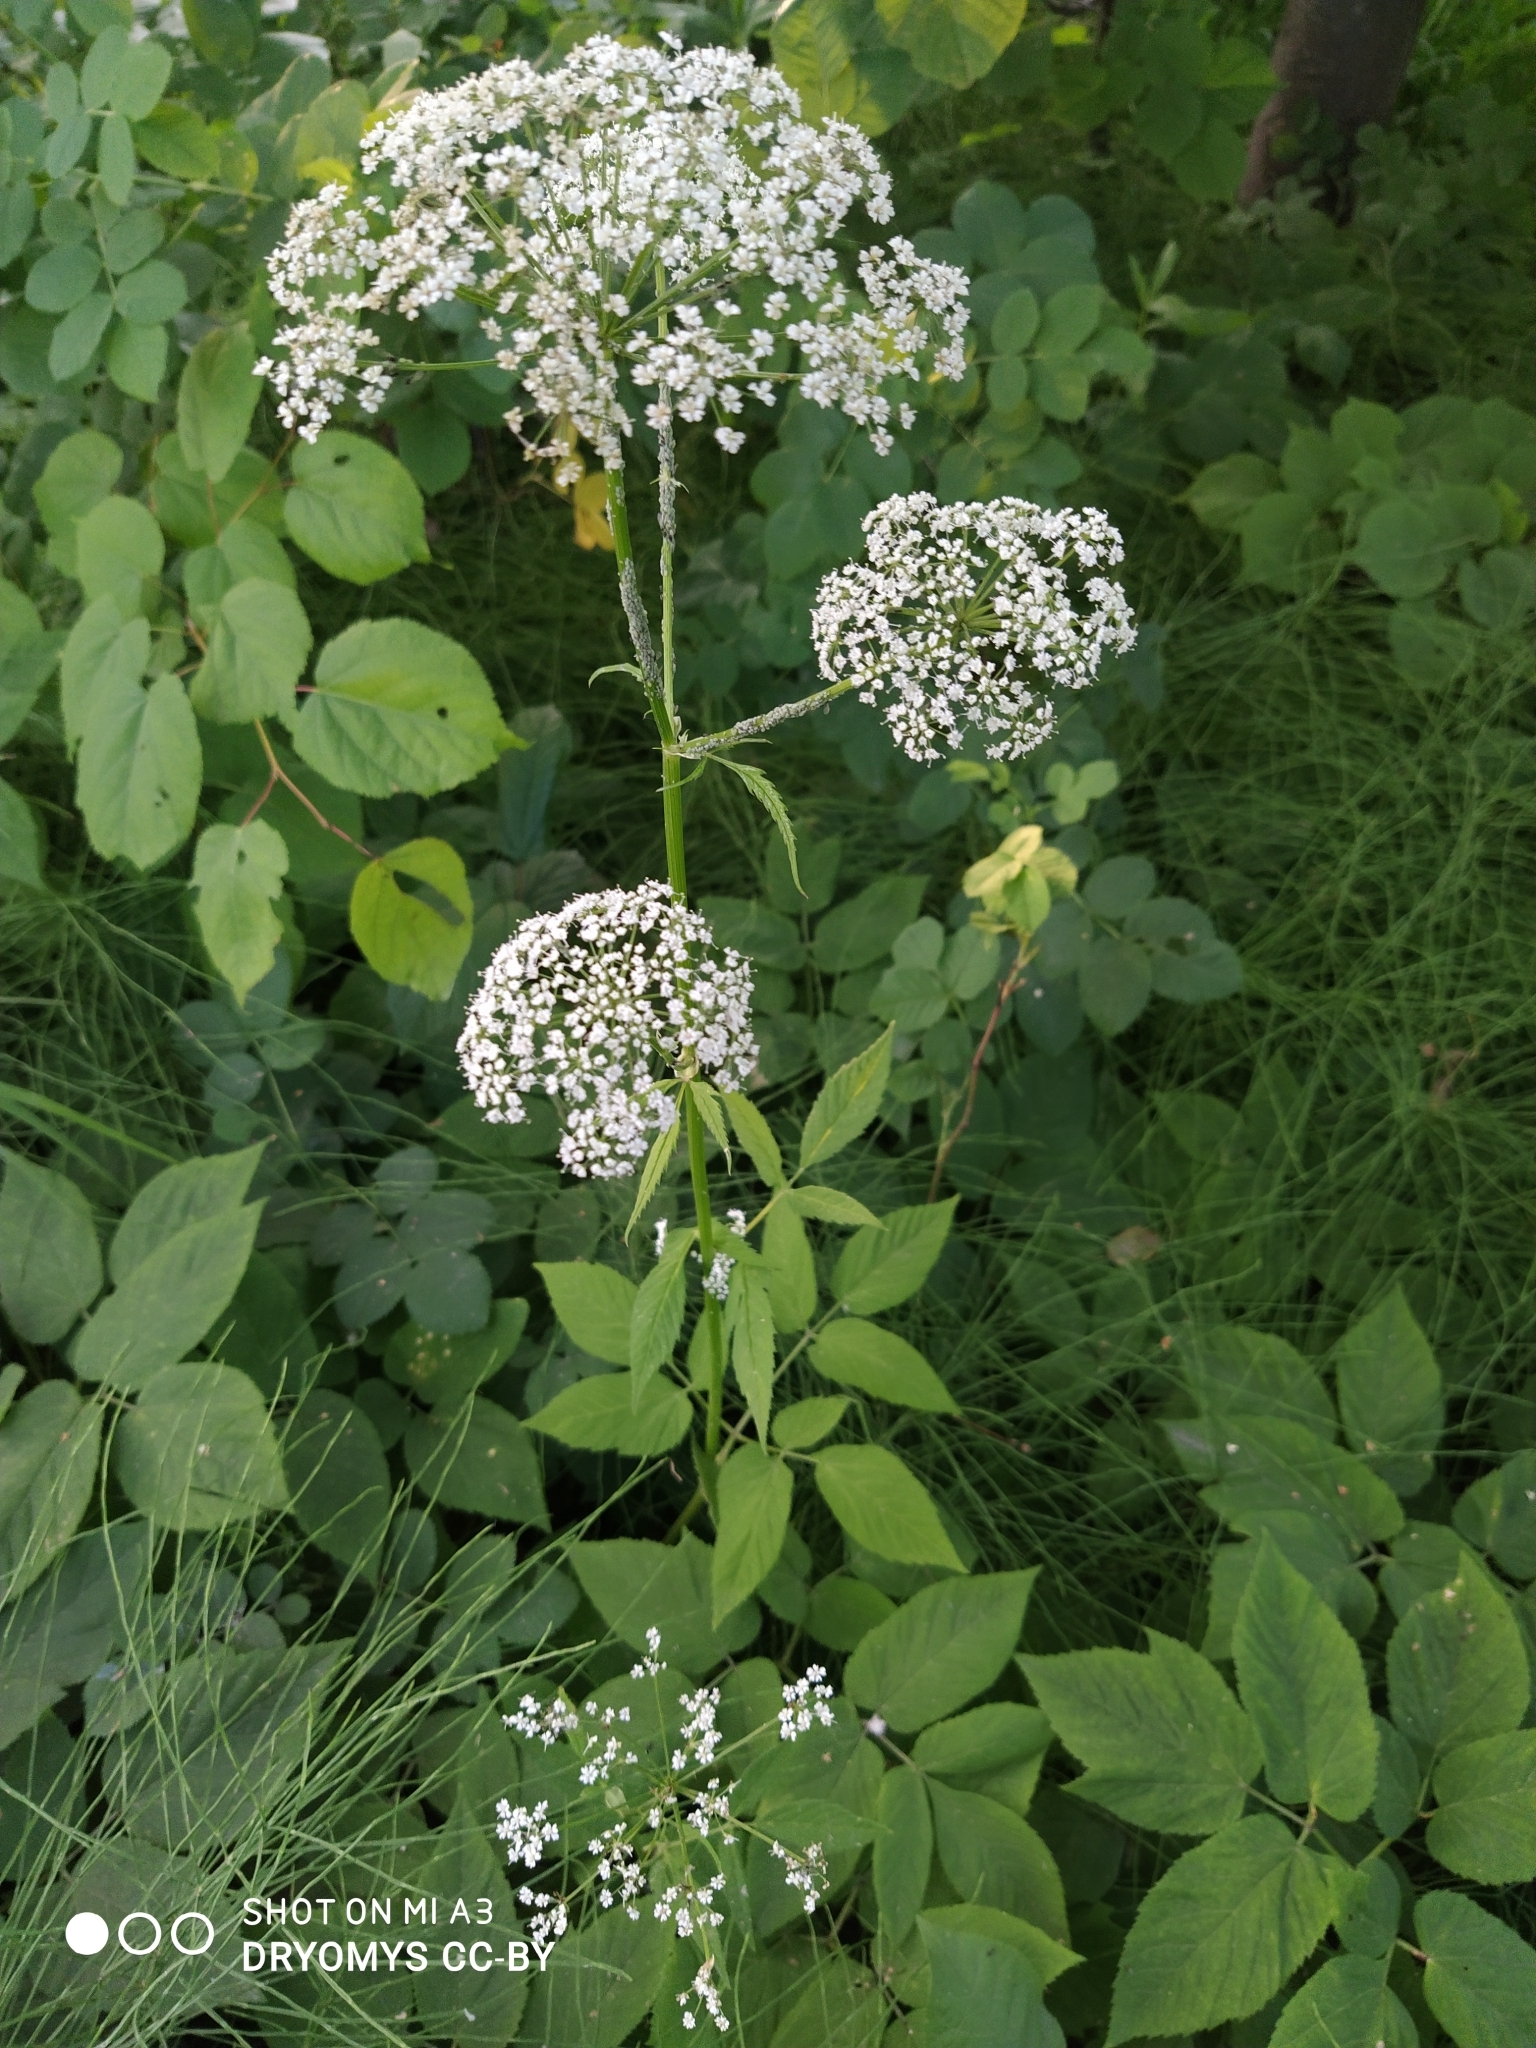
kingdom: Plantae
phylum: Tracheophyta
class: Magnoliopsida
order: Apiales
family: Apiaceae
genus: Aegopodium
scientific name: Aegopodium podagraria
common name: Ground-elder
